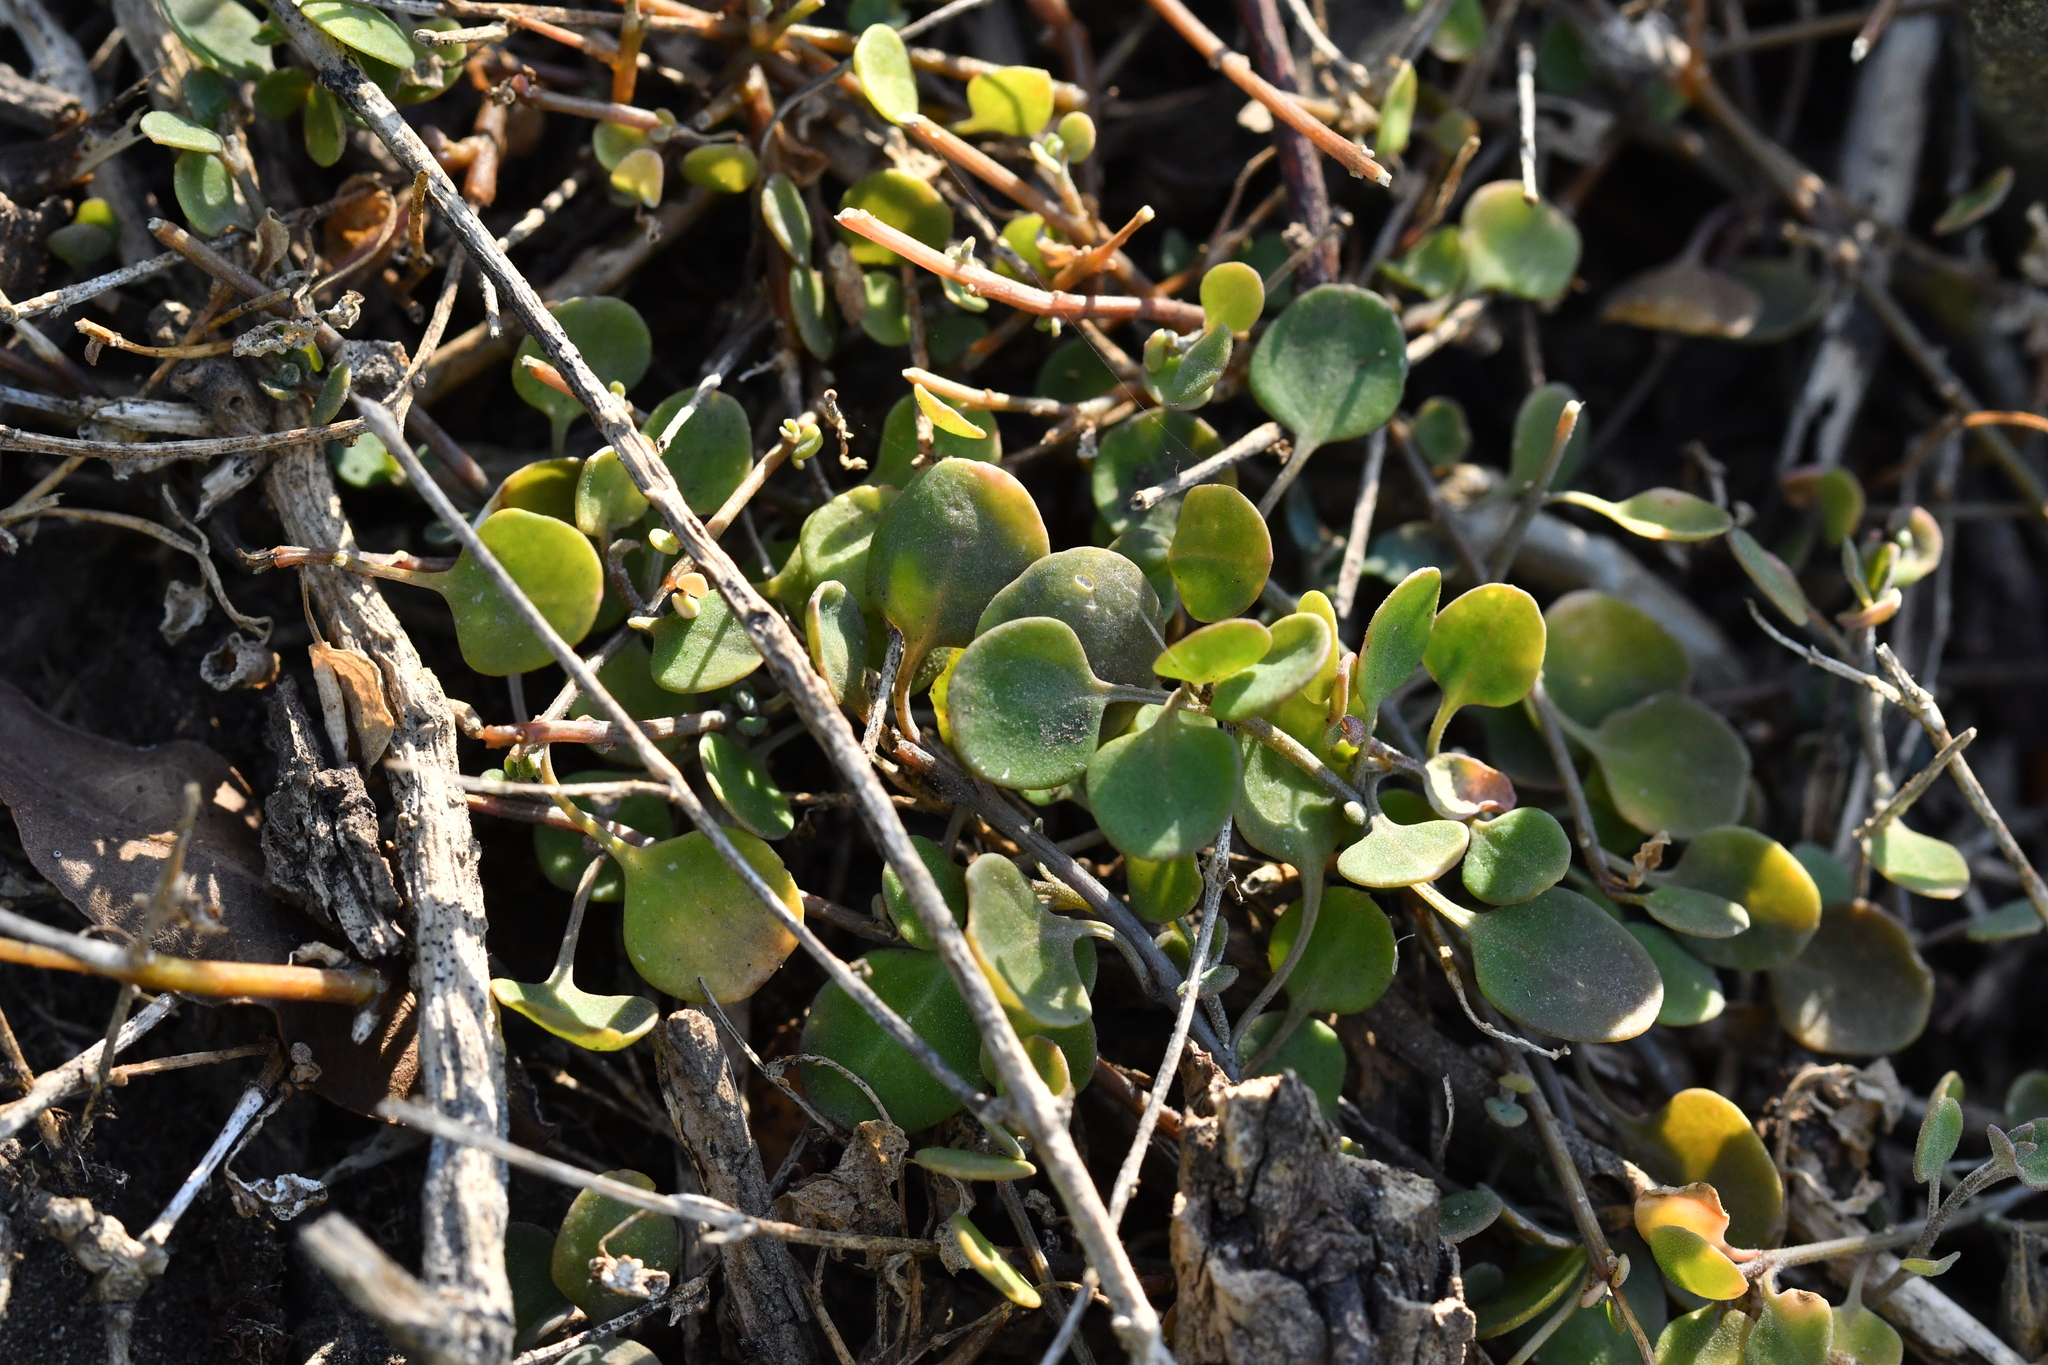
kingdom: Plantae
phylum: Tracheophyta
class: Magnoliopsida
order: Caryophyllales
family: Amaranthaceae
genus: Chenopodium
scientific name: Chenopodium allanii
